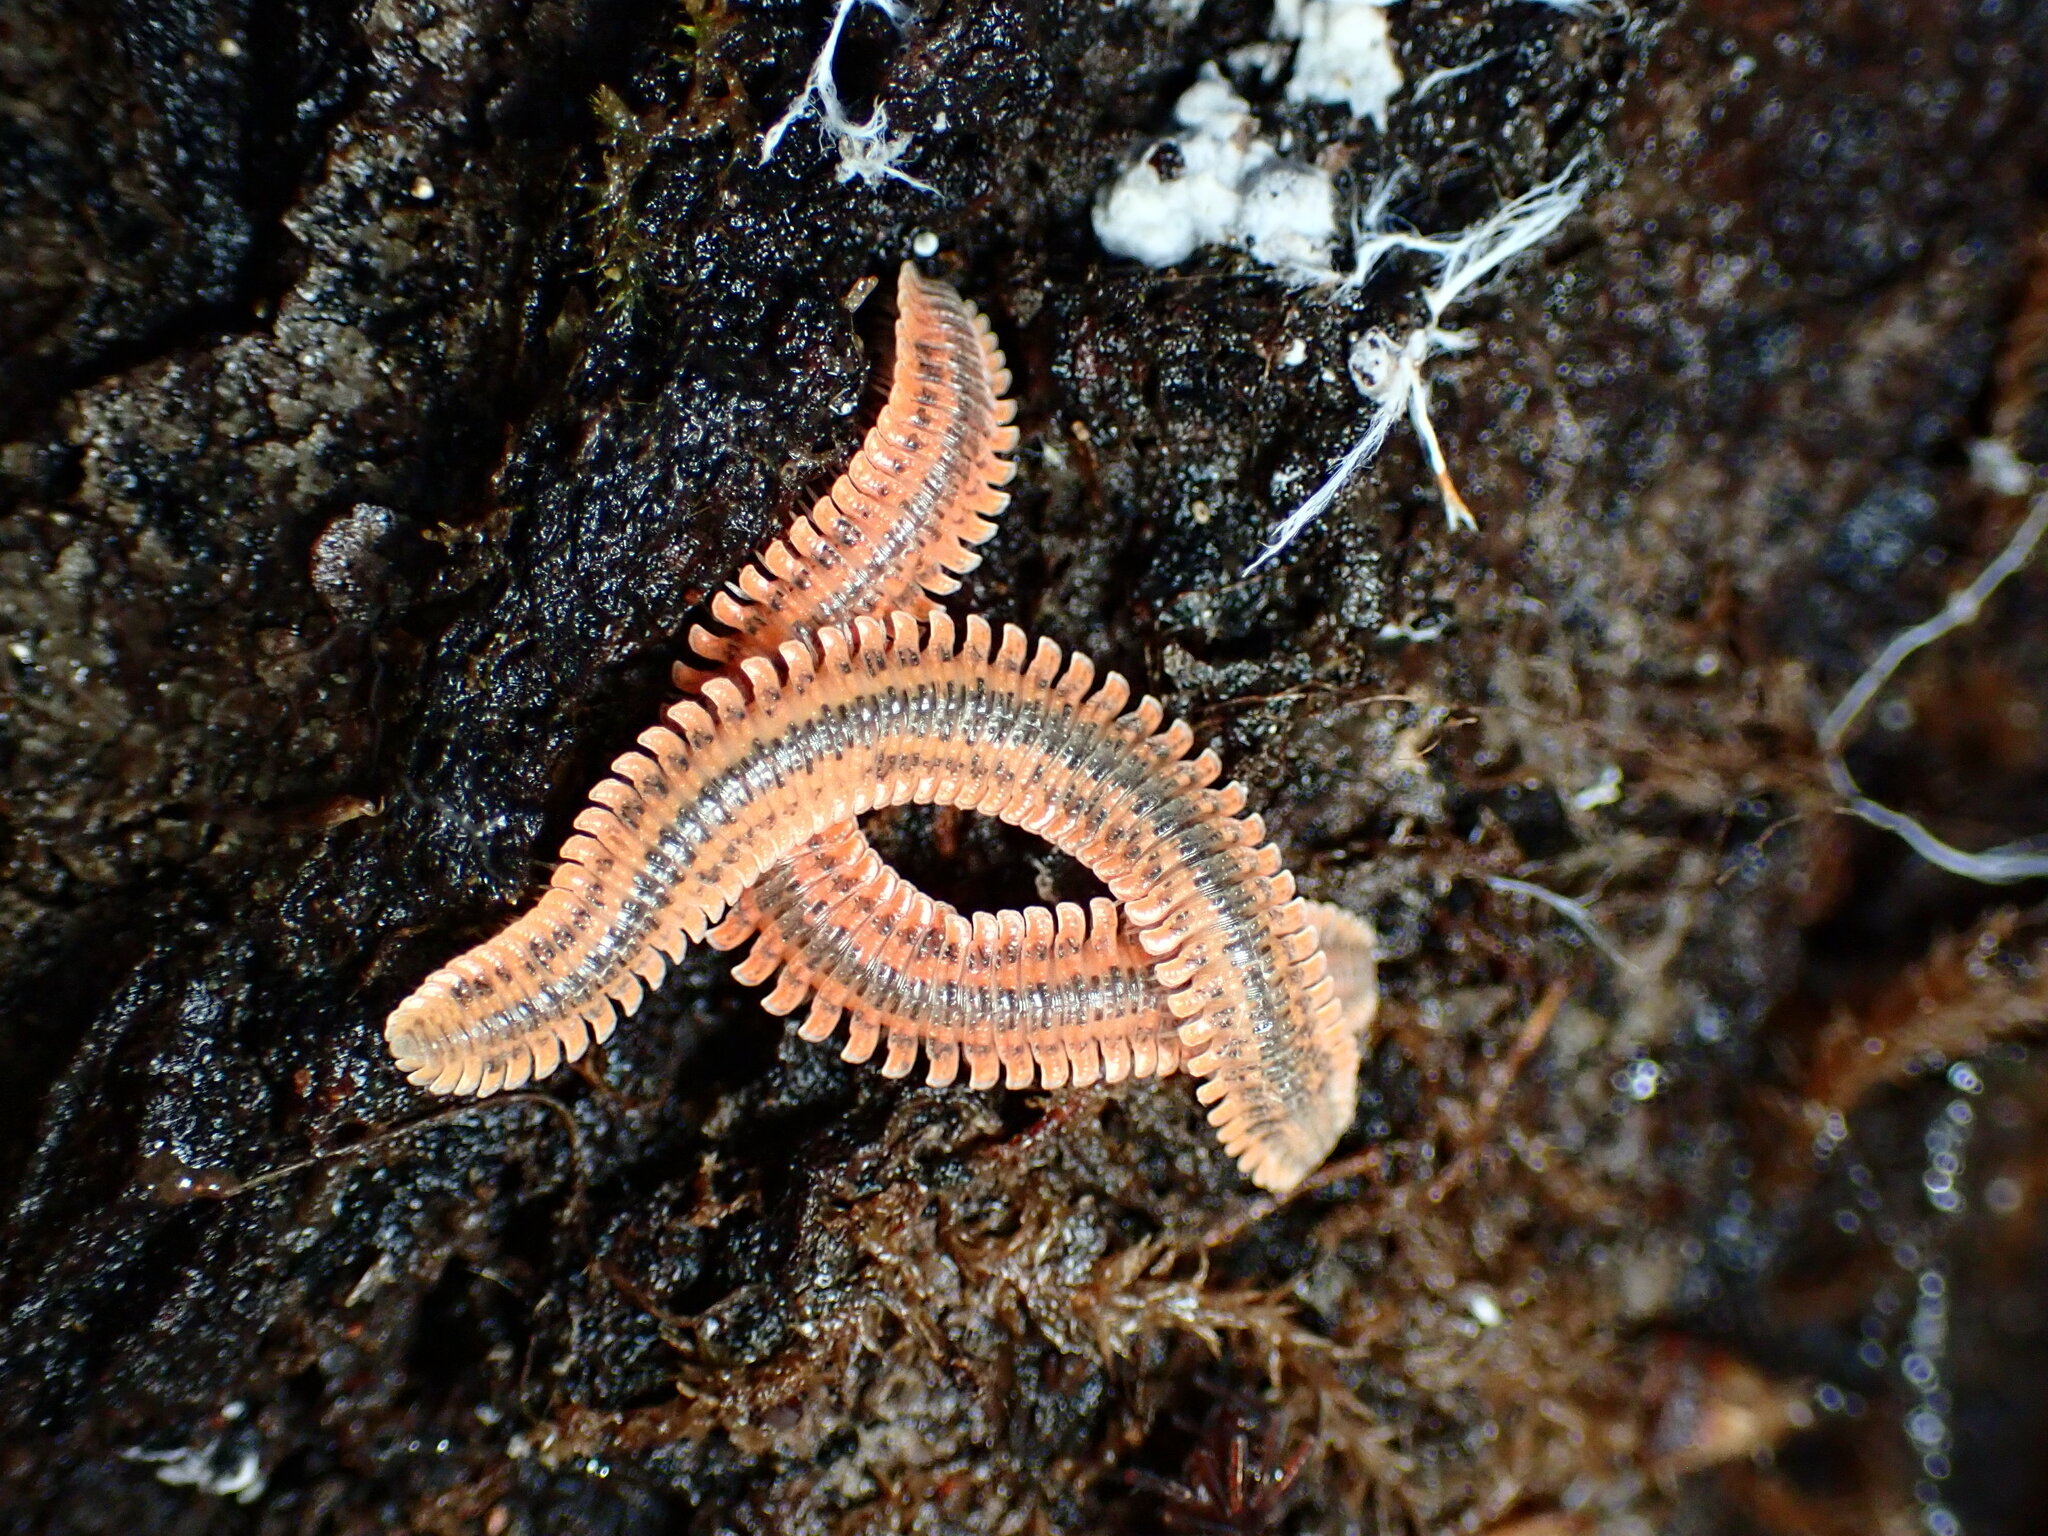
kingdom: Animalia
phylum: Arthropoda
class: Diplopoda
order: Platydesmida
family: Andrognathidae
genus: Brachycybe
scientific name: Brachycybe producta
